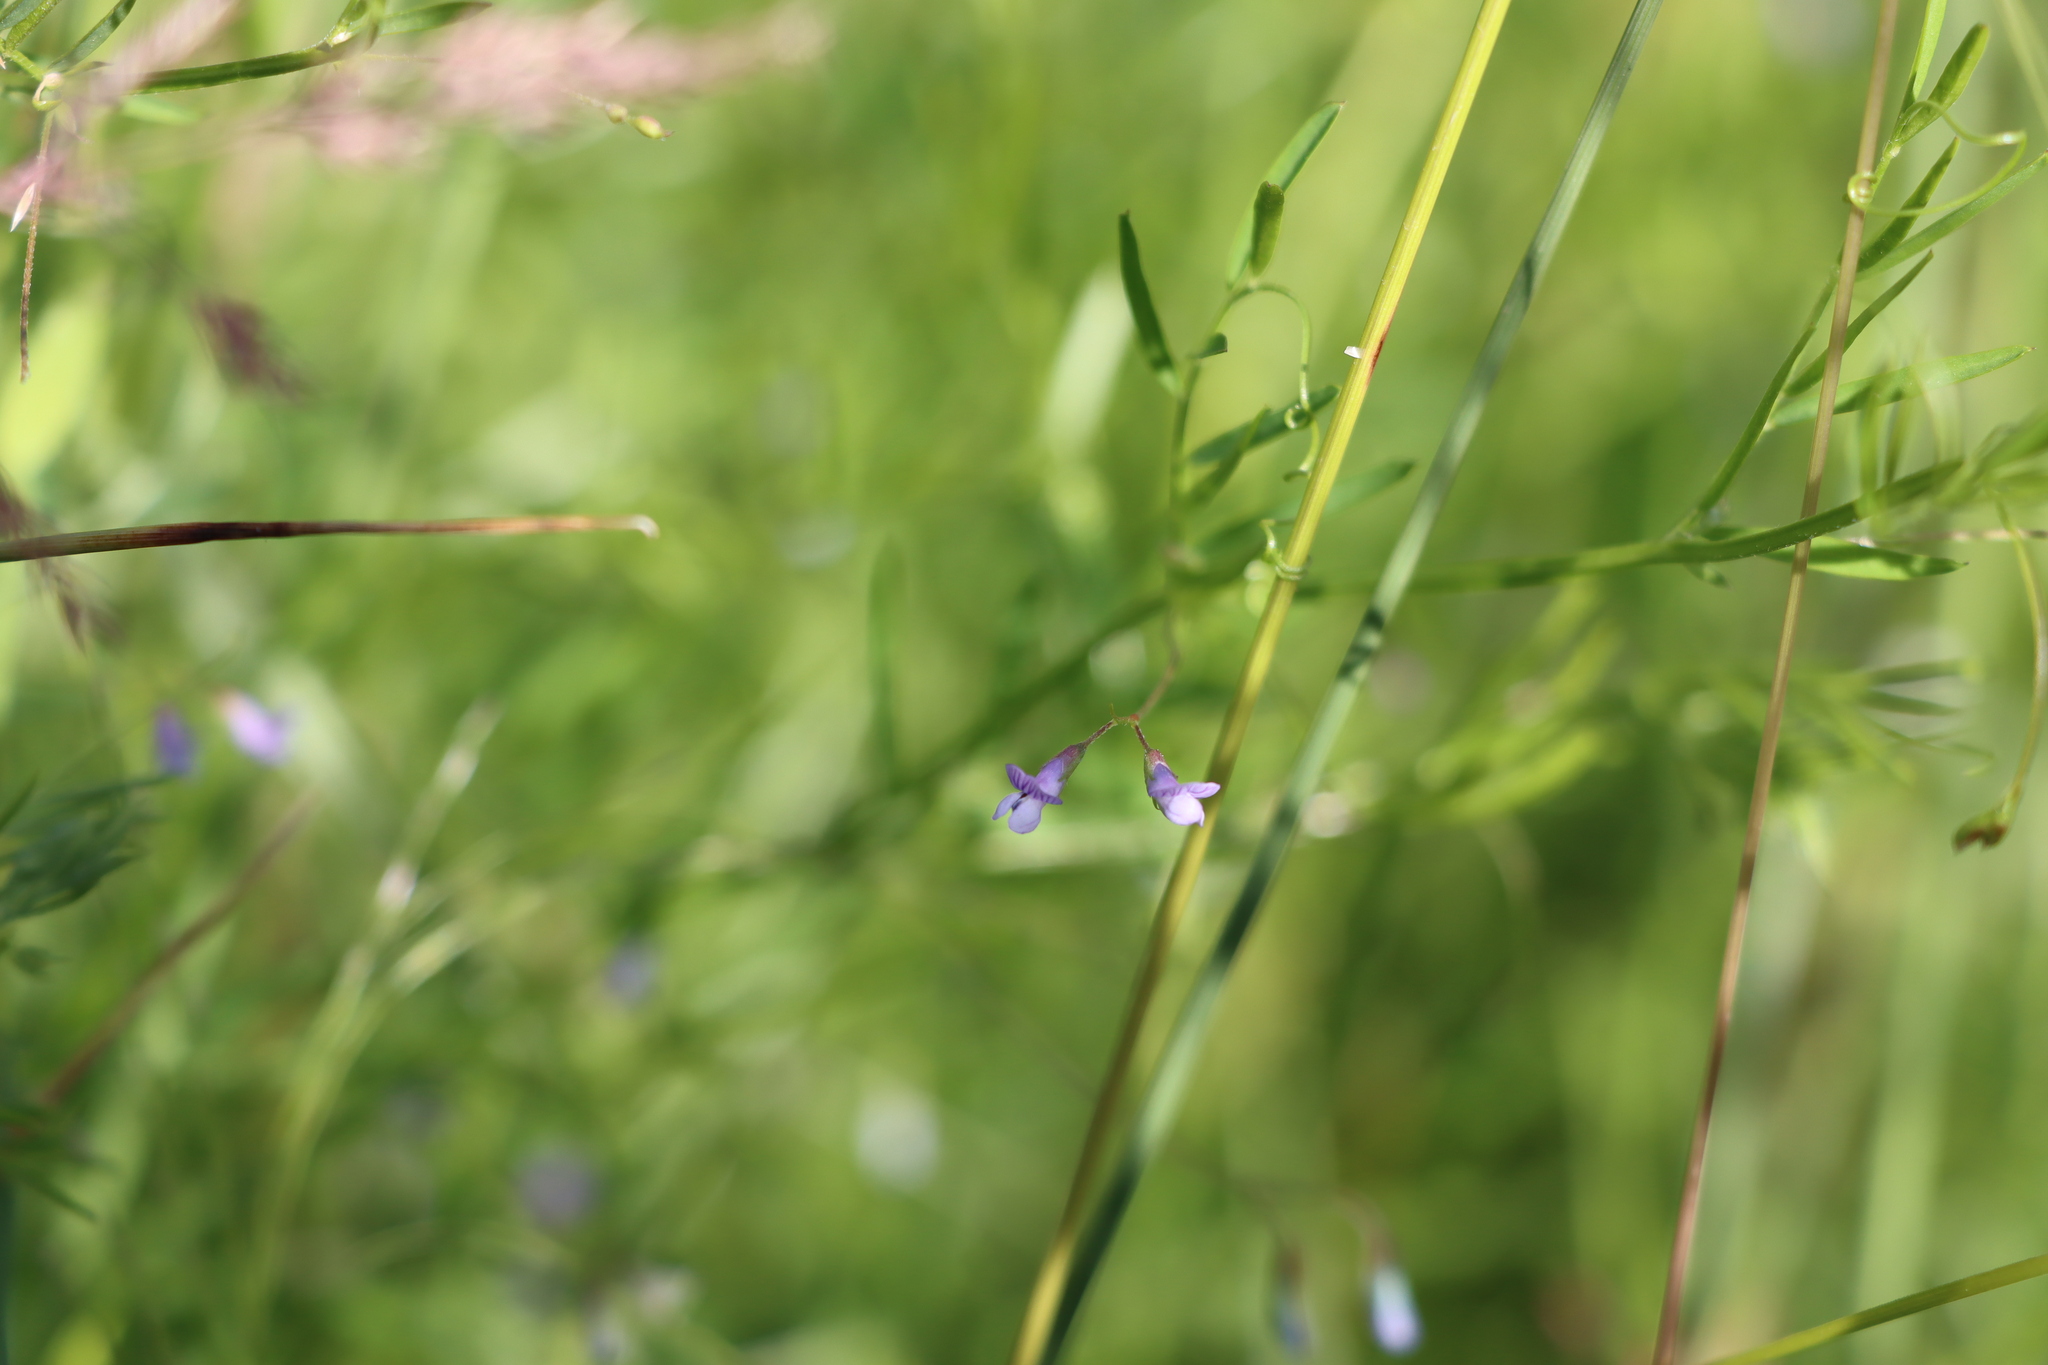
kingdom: Plantae
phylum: Tracheophyta
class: Magnoliopsida
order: Fabales
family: Fabaceae
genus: Vicia
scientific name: Vicia tetrasperma
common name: Smooth tare
